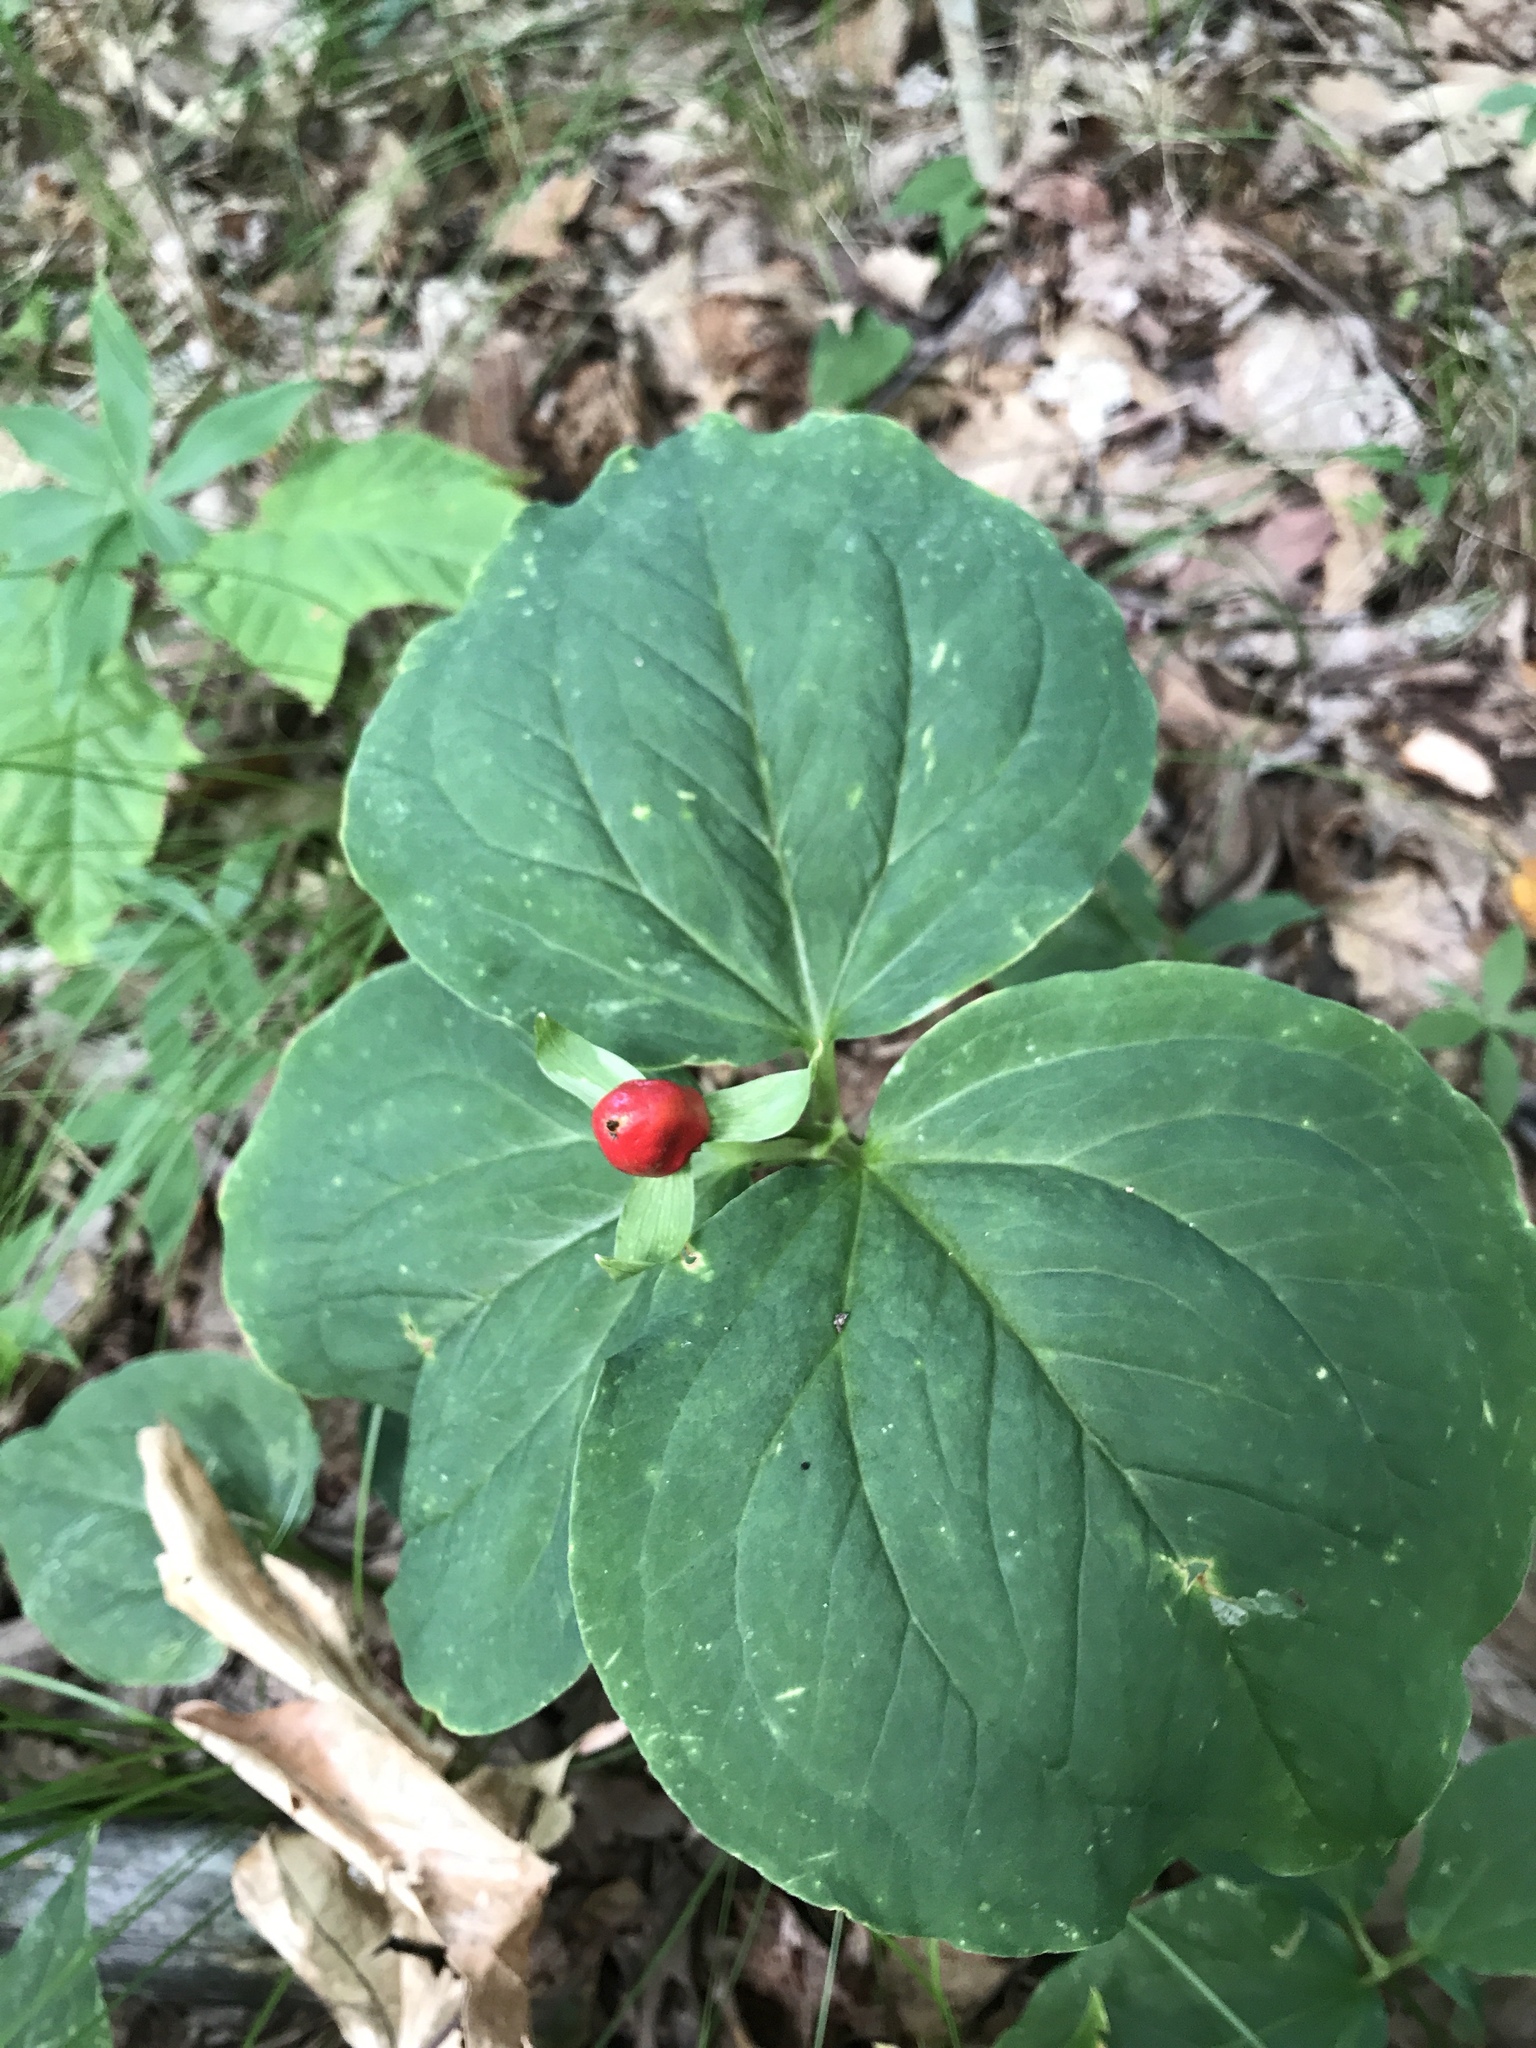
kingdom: Plantae
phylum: Tracheophyta
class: Liliopsida
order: Liliales
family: Melanthiaceae
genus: Trillium
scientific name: Trillium undulatum
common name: Paint trillium
